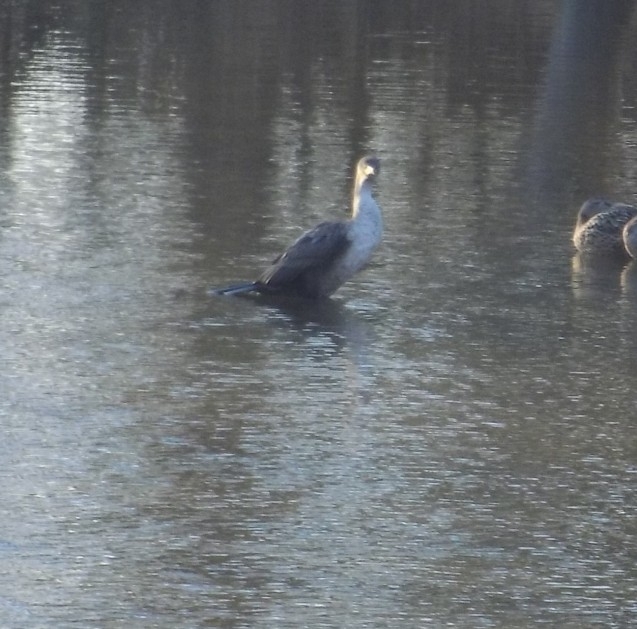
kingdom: Animalia
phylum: Chordata
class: Aves
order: Suliformes
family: Phalacrocoracidae
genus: Phalacrocorax
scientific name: Phalacrocorax auritus
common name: Double-crested cormorant
